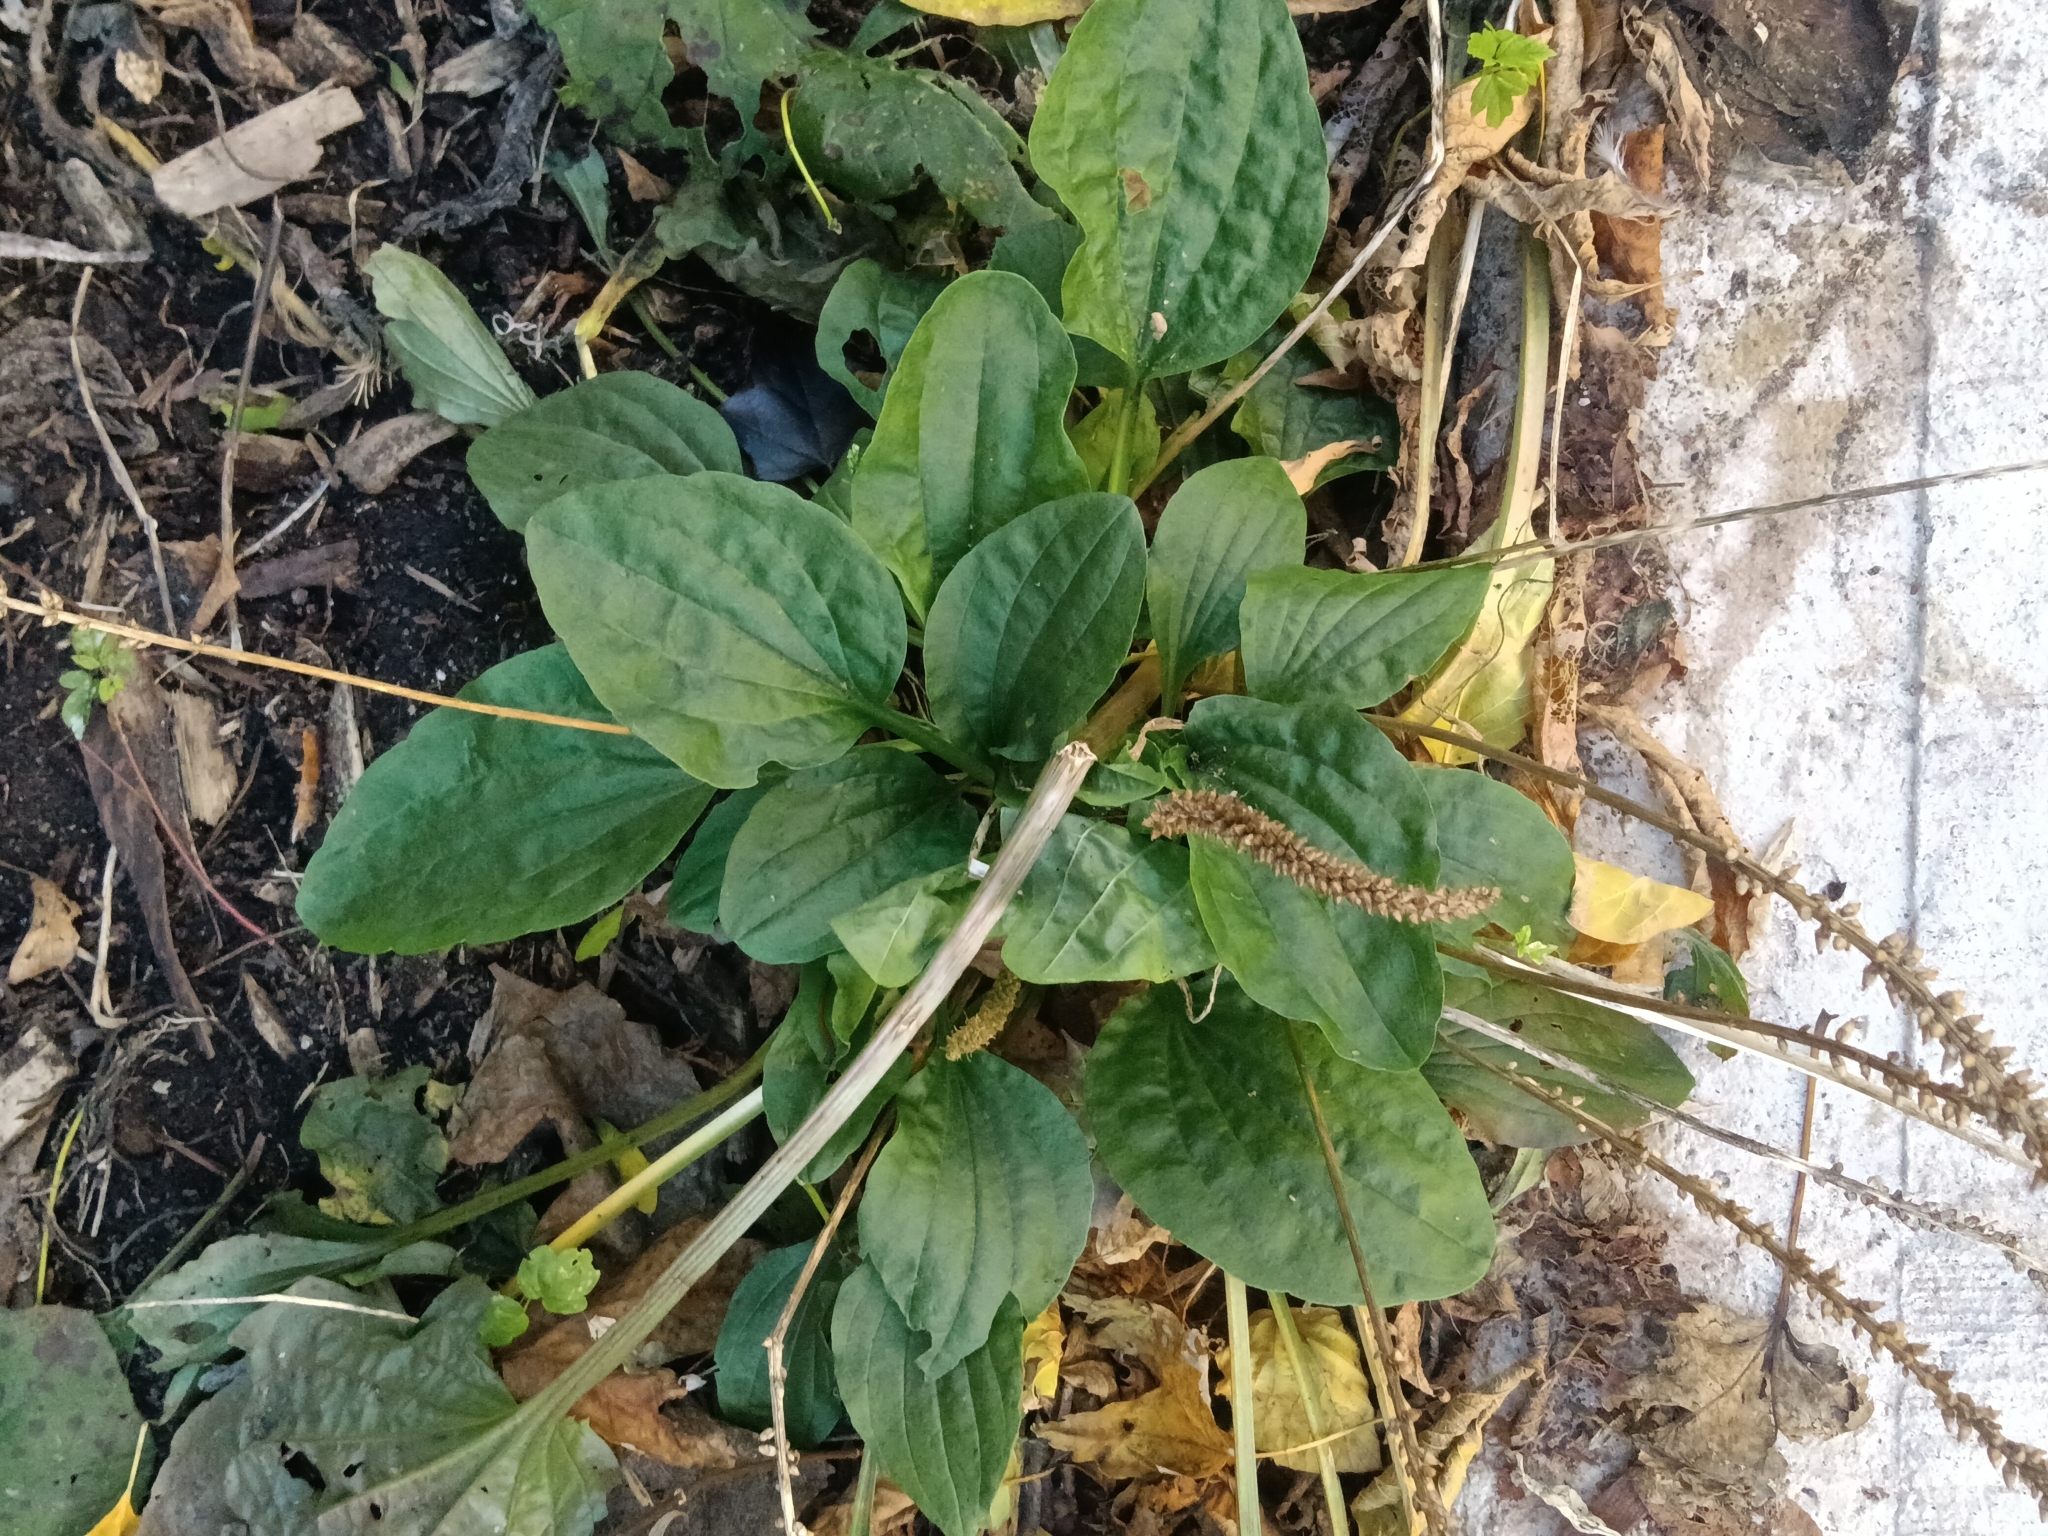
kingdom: Plantae
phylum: Tracheophyta
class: Magnoliopsida
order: Lamiales
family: Plantaginaceae
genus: Plantago
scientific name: Plantago major
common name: Common plantain
